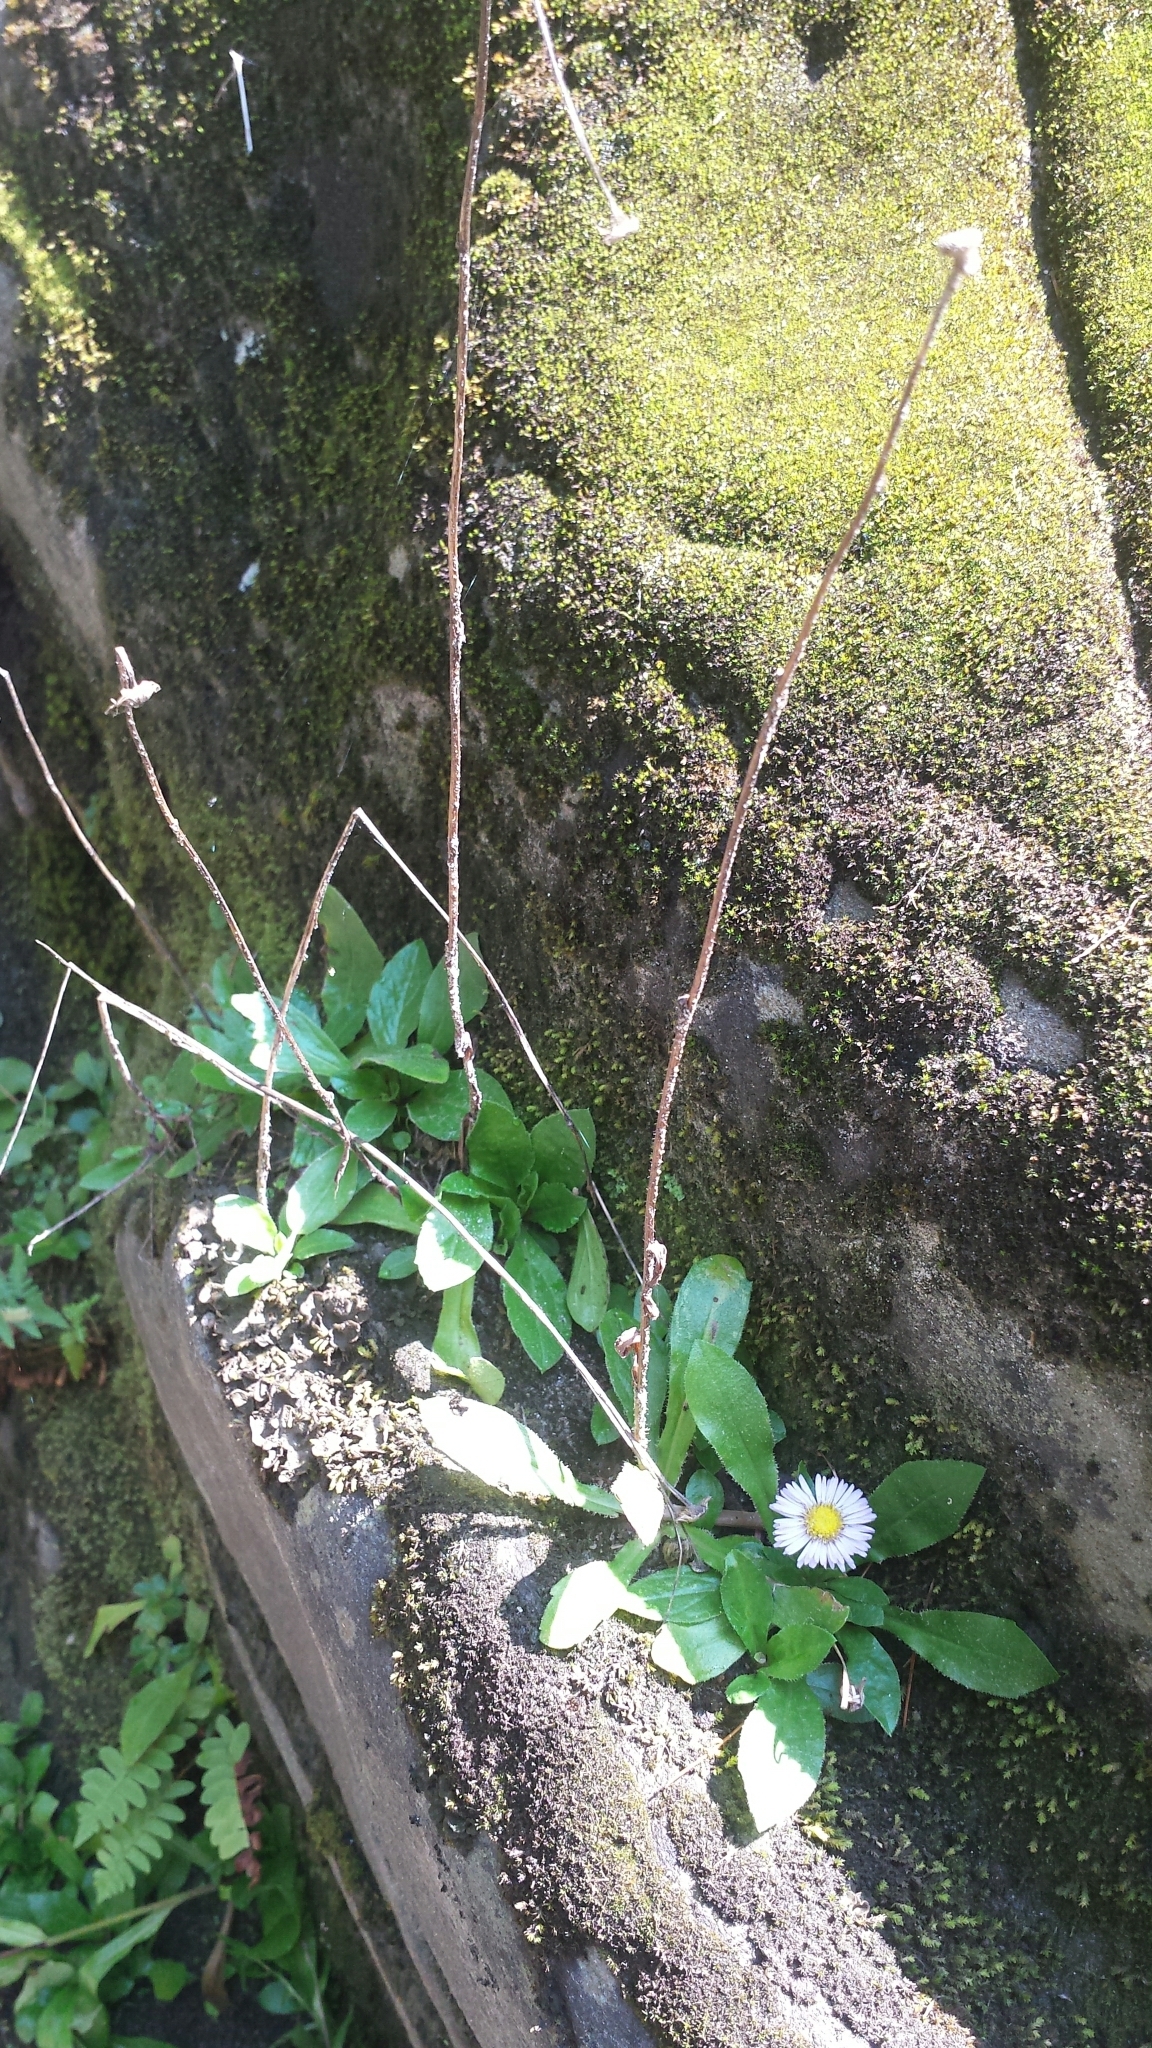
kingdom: Plantae
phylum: Tracheophyta
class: Magnoliopsida
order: Asterales
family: Asteraceae
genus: Erigeron
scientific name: Erigeron pulchellus
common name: Hairy fleabane
